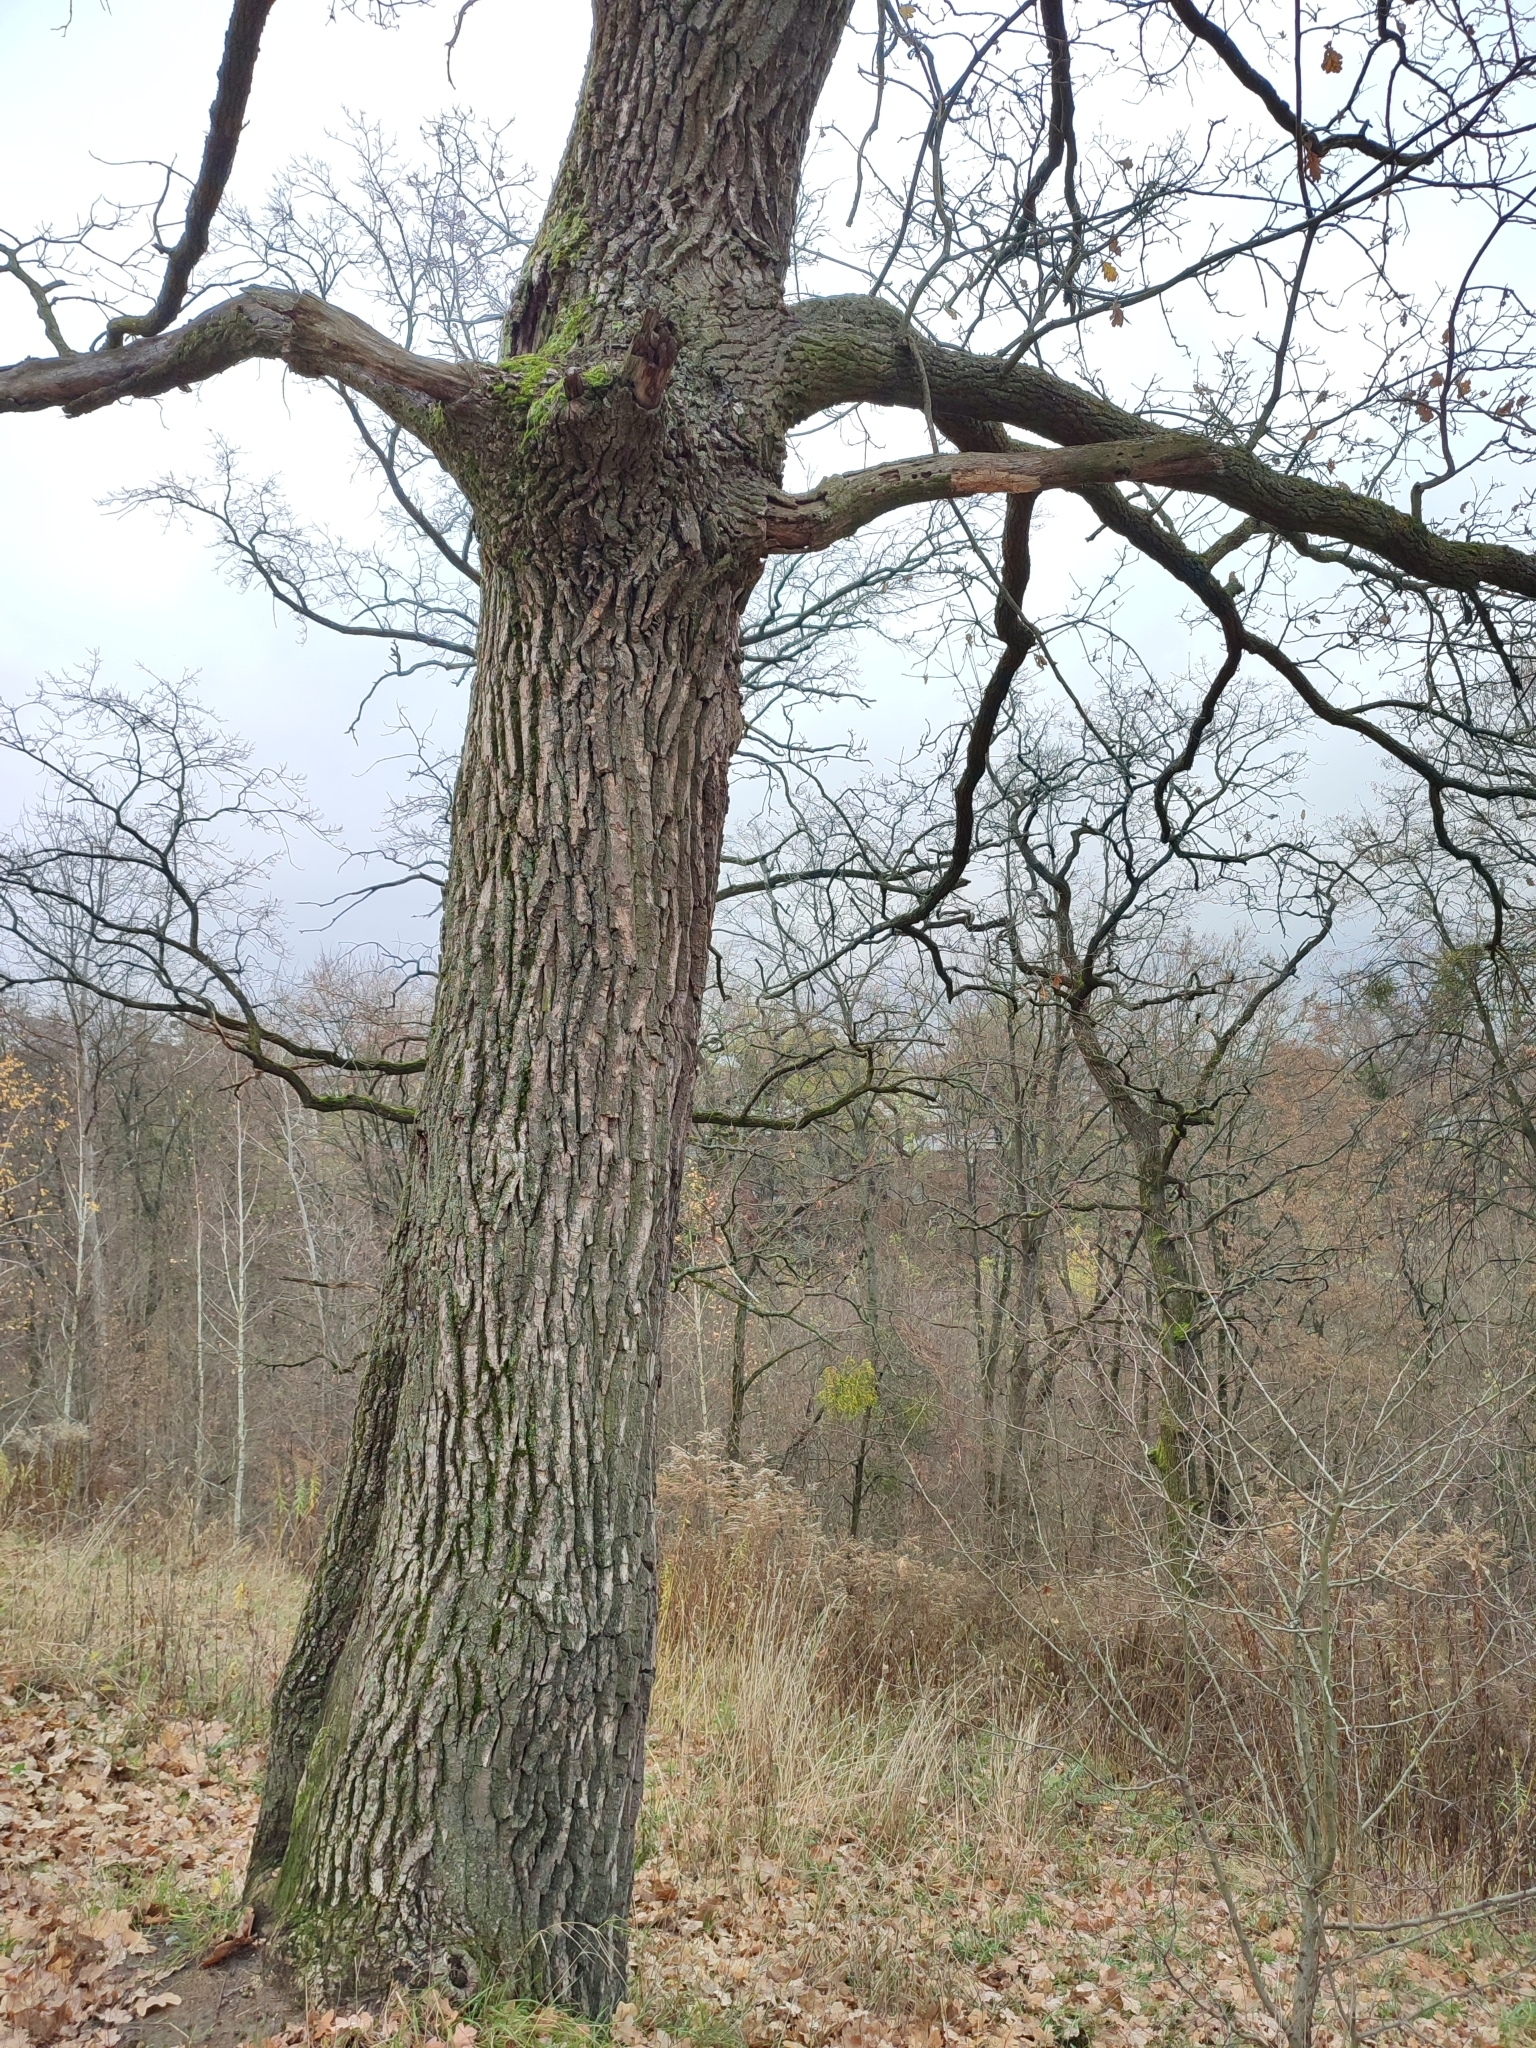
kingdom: Plantae
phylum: Tracheophyta
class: Magnoliopsida
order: Fagales
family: Fagaceae
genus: Quercus
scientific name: Quercus robur
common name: Pedunculate oak
